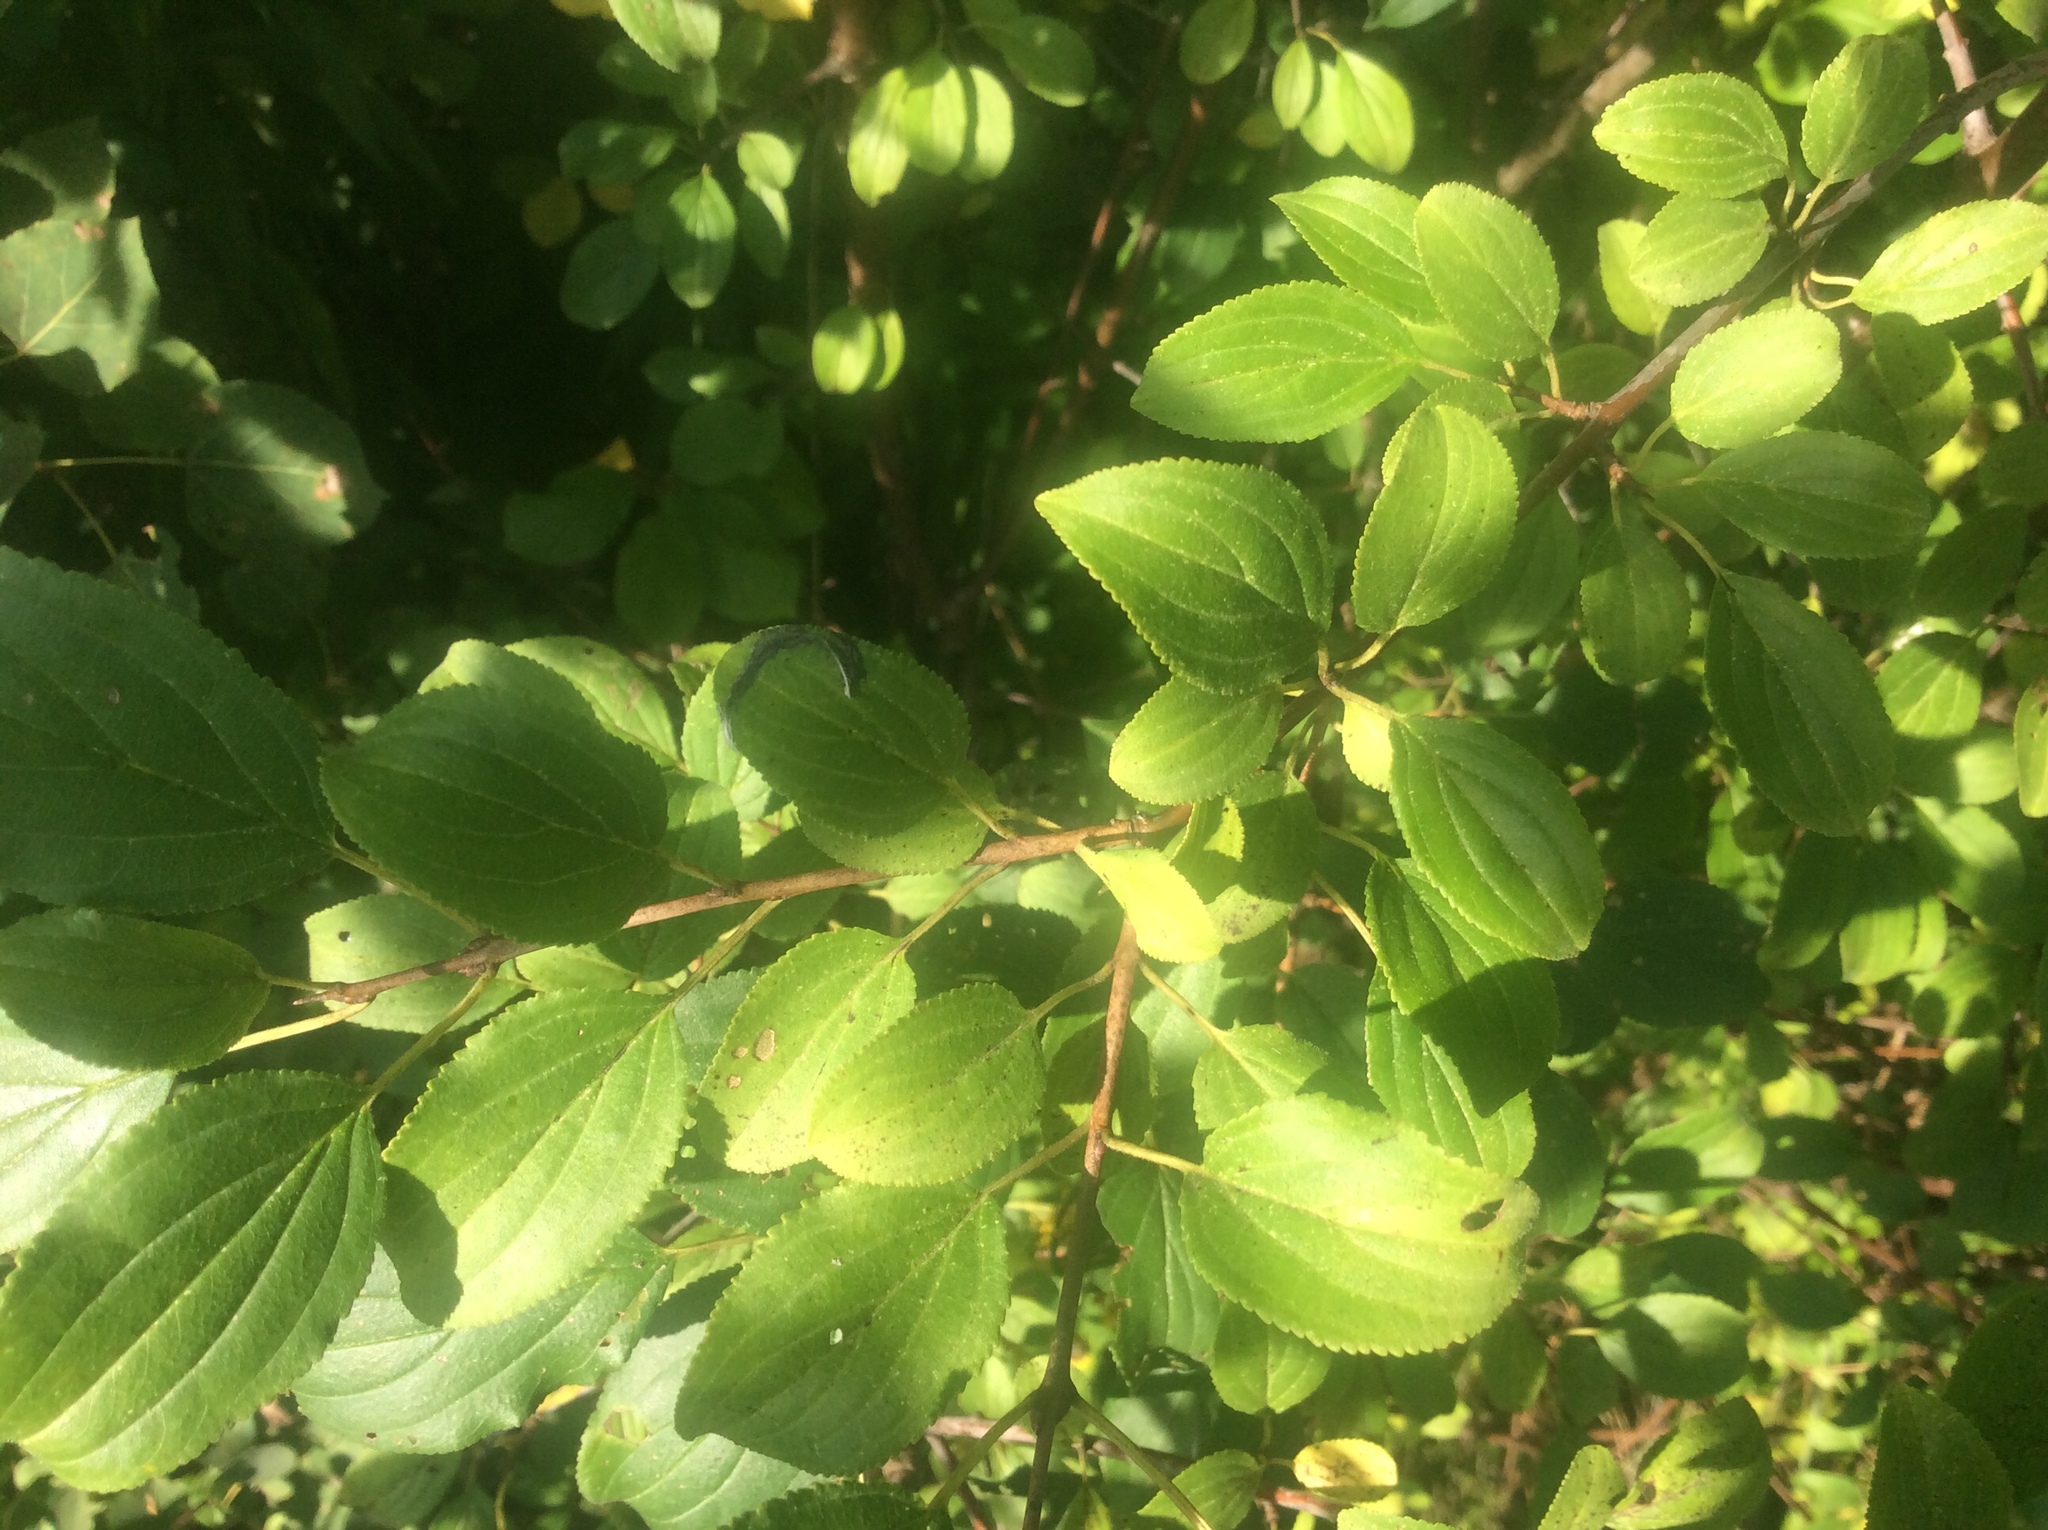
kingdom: Plantae
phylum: Tracheophyta
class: Magnoliopsida
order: Rosales
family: Rhamnaceae
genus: Rhamnus
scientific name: Rhamnus cathartica
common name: Common buckthorn
